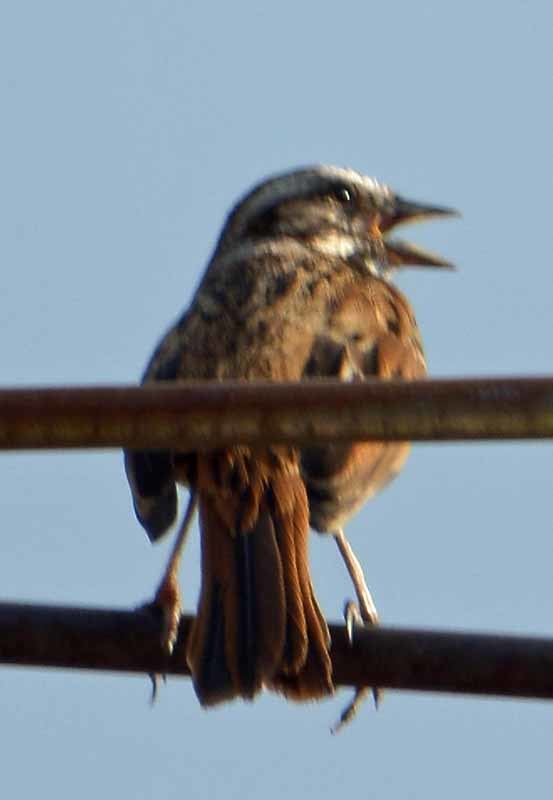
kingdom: Animalia
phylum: Chordata
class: Aves
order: Passeriformes
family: Passerellidae
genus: Melospiza
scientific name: Melospiza melodia
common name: Song sparrow
